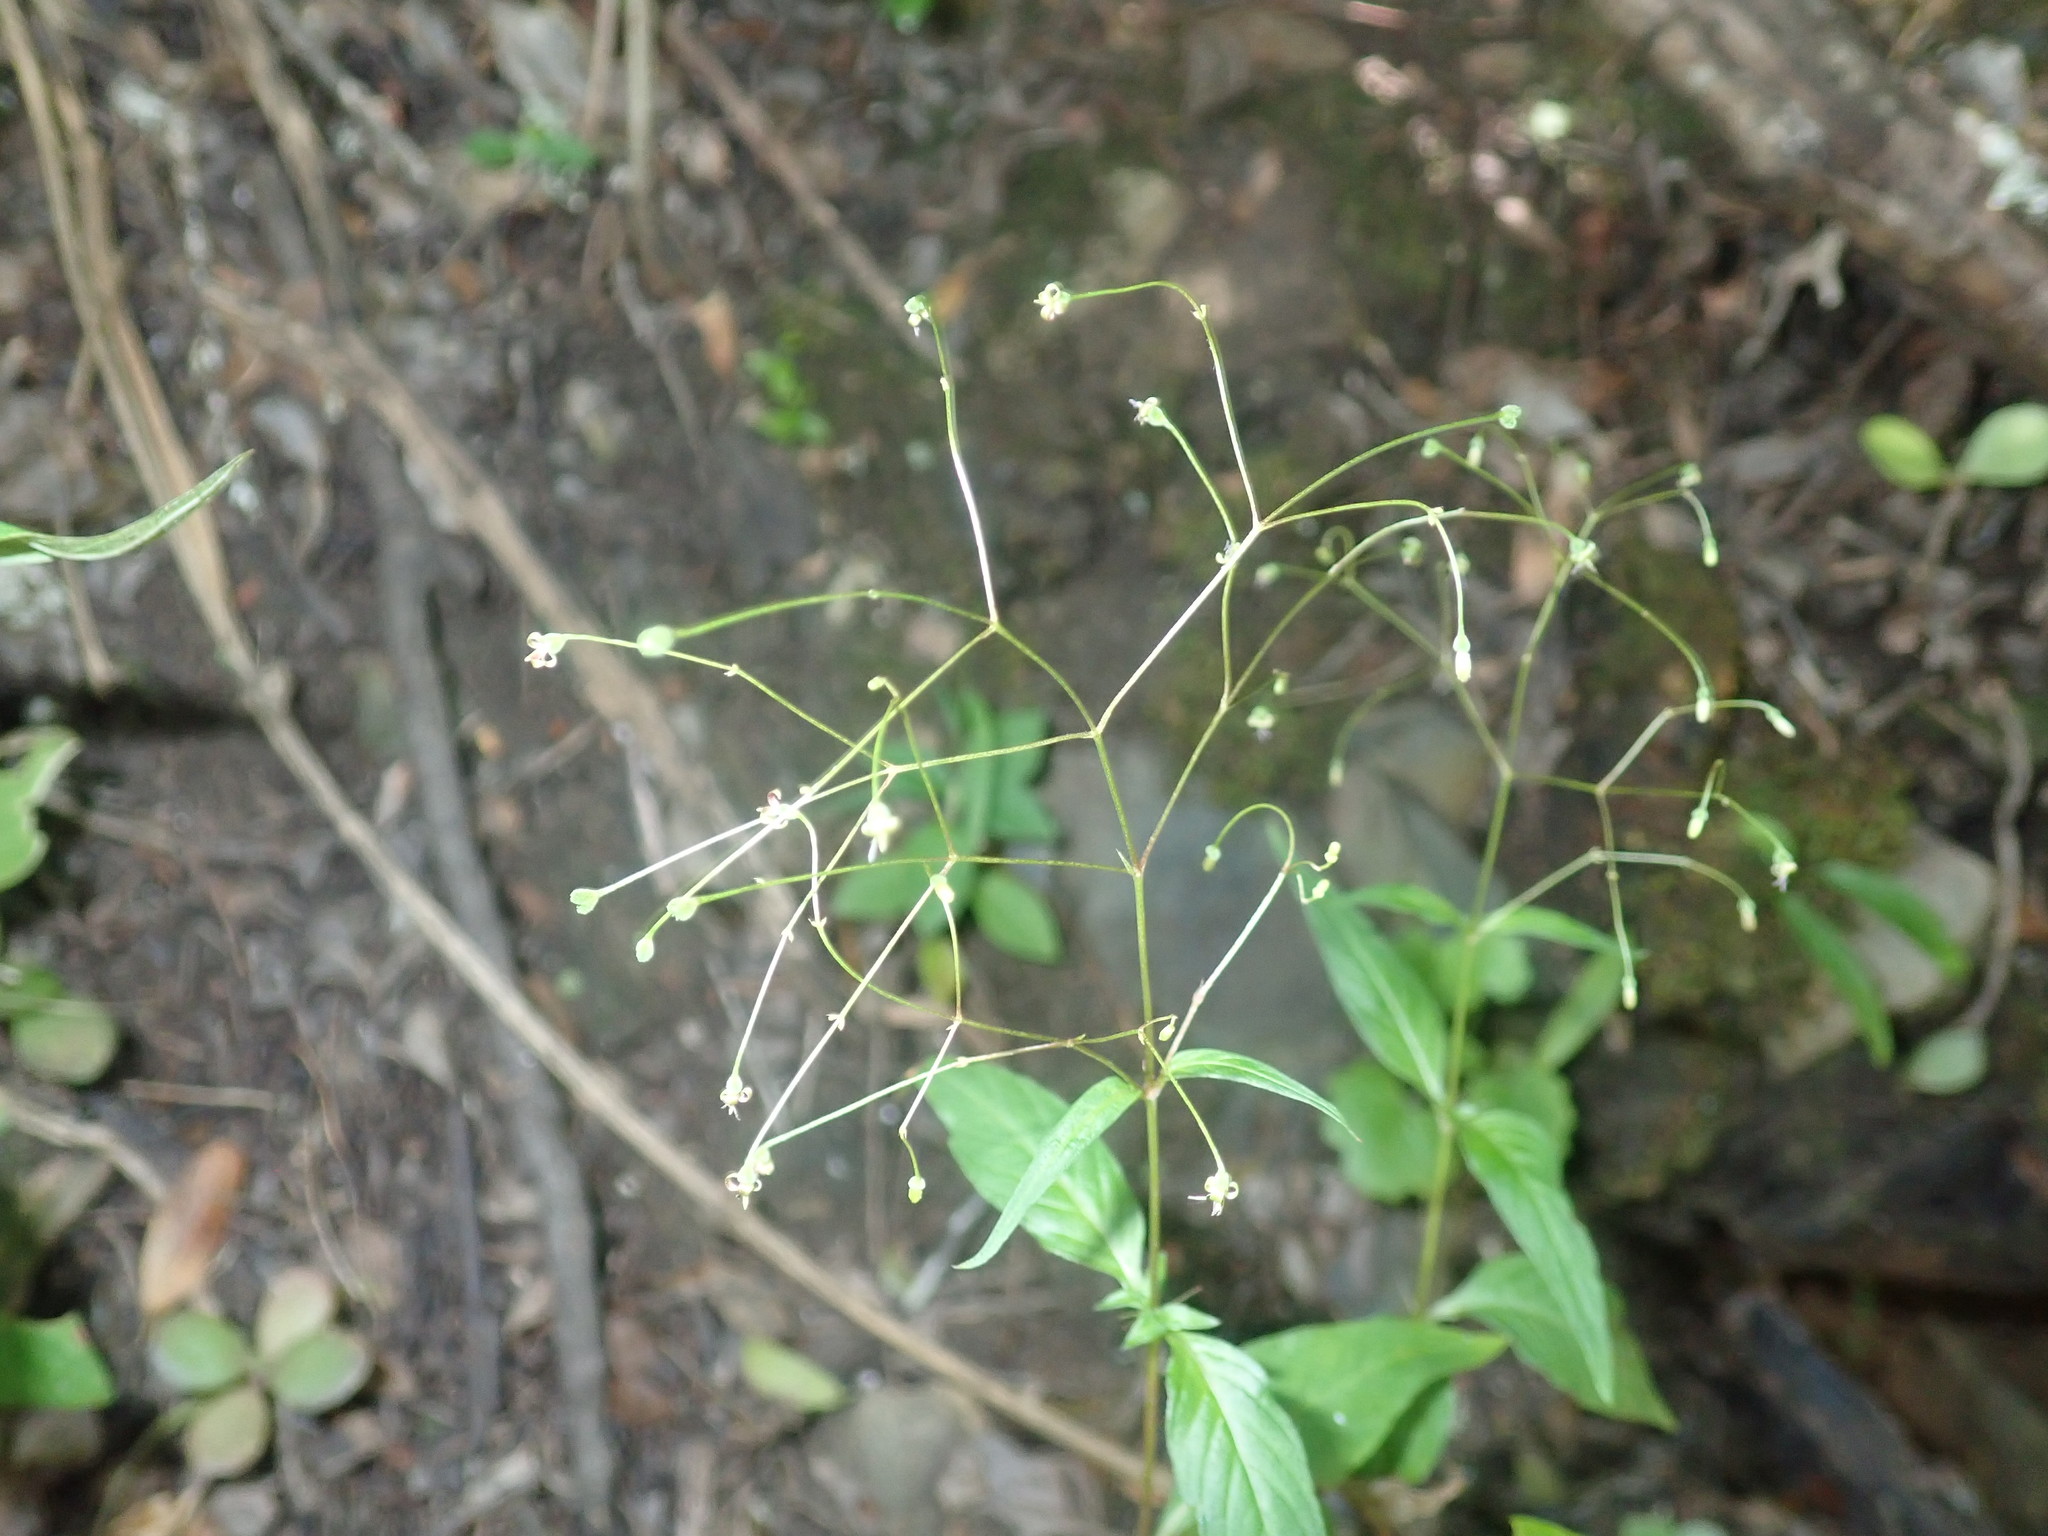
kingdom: Plantae
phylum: Tracheophyta
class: Magnoliopsida
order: Gentianales
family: Rubiaceae
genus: Galopina
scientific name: Galopina circaeoides
